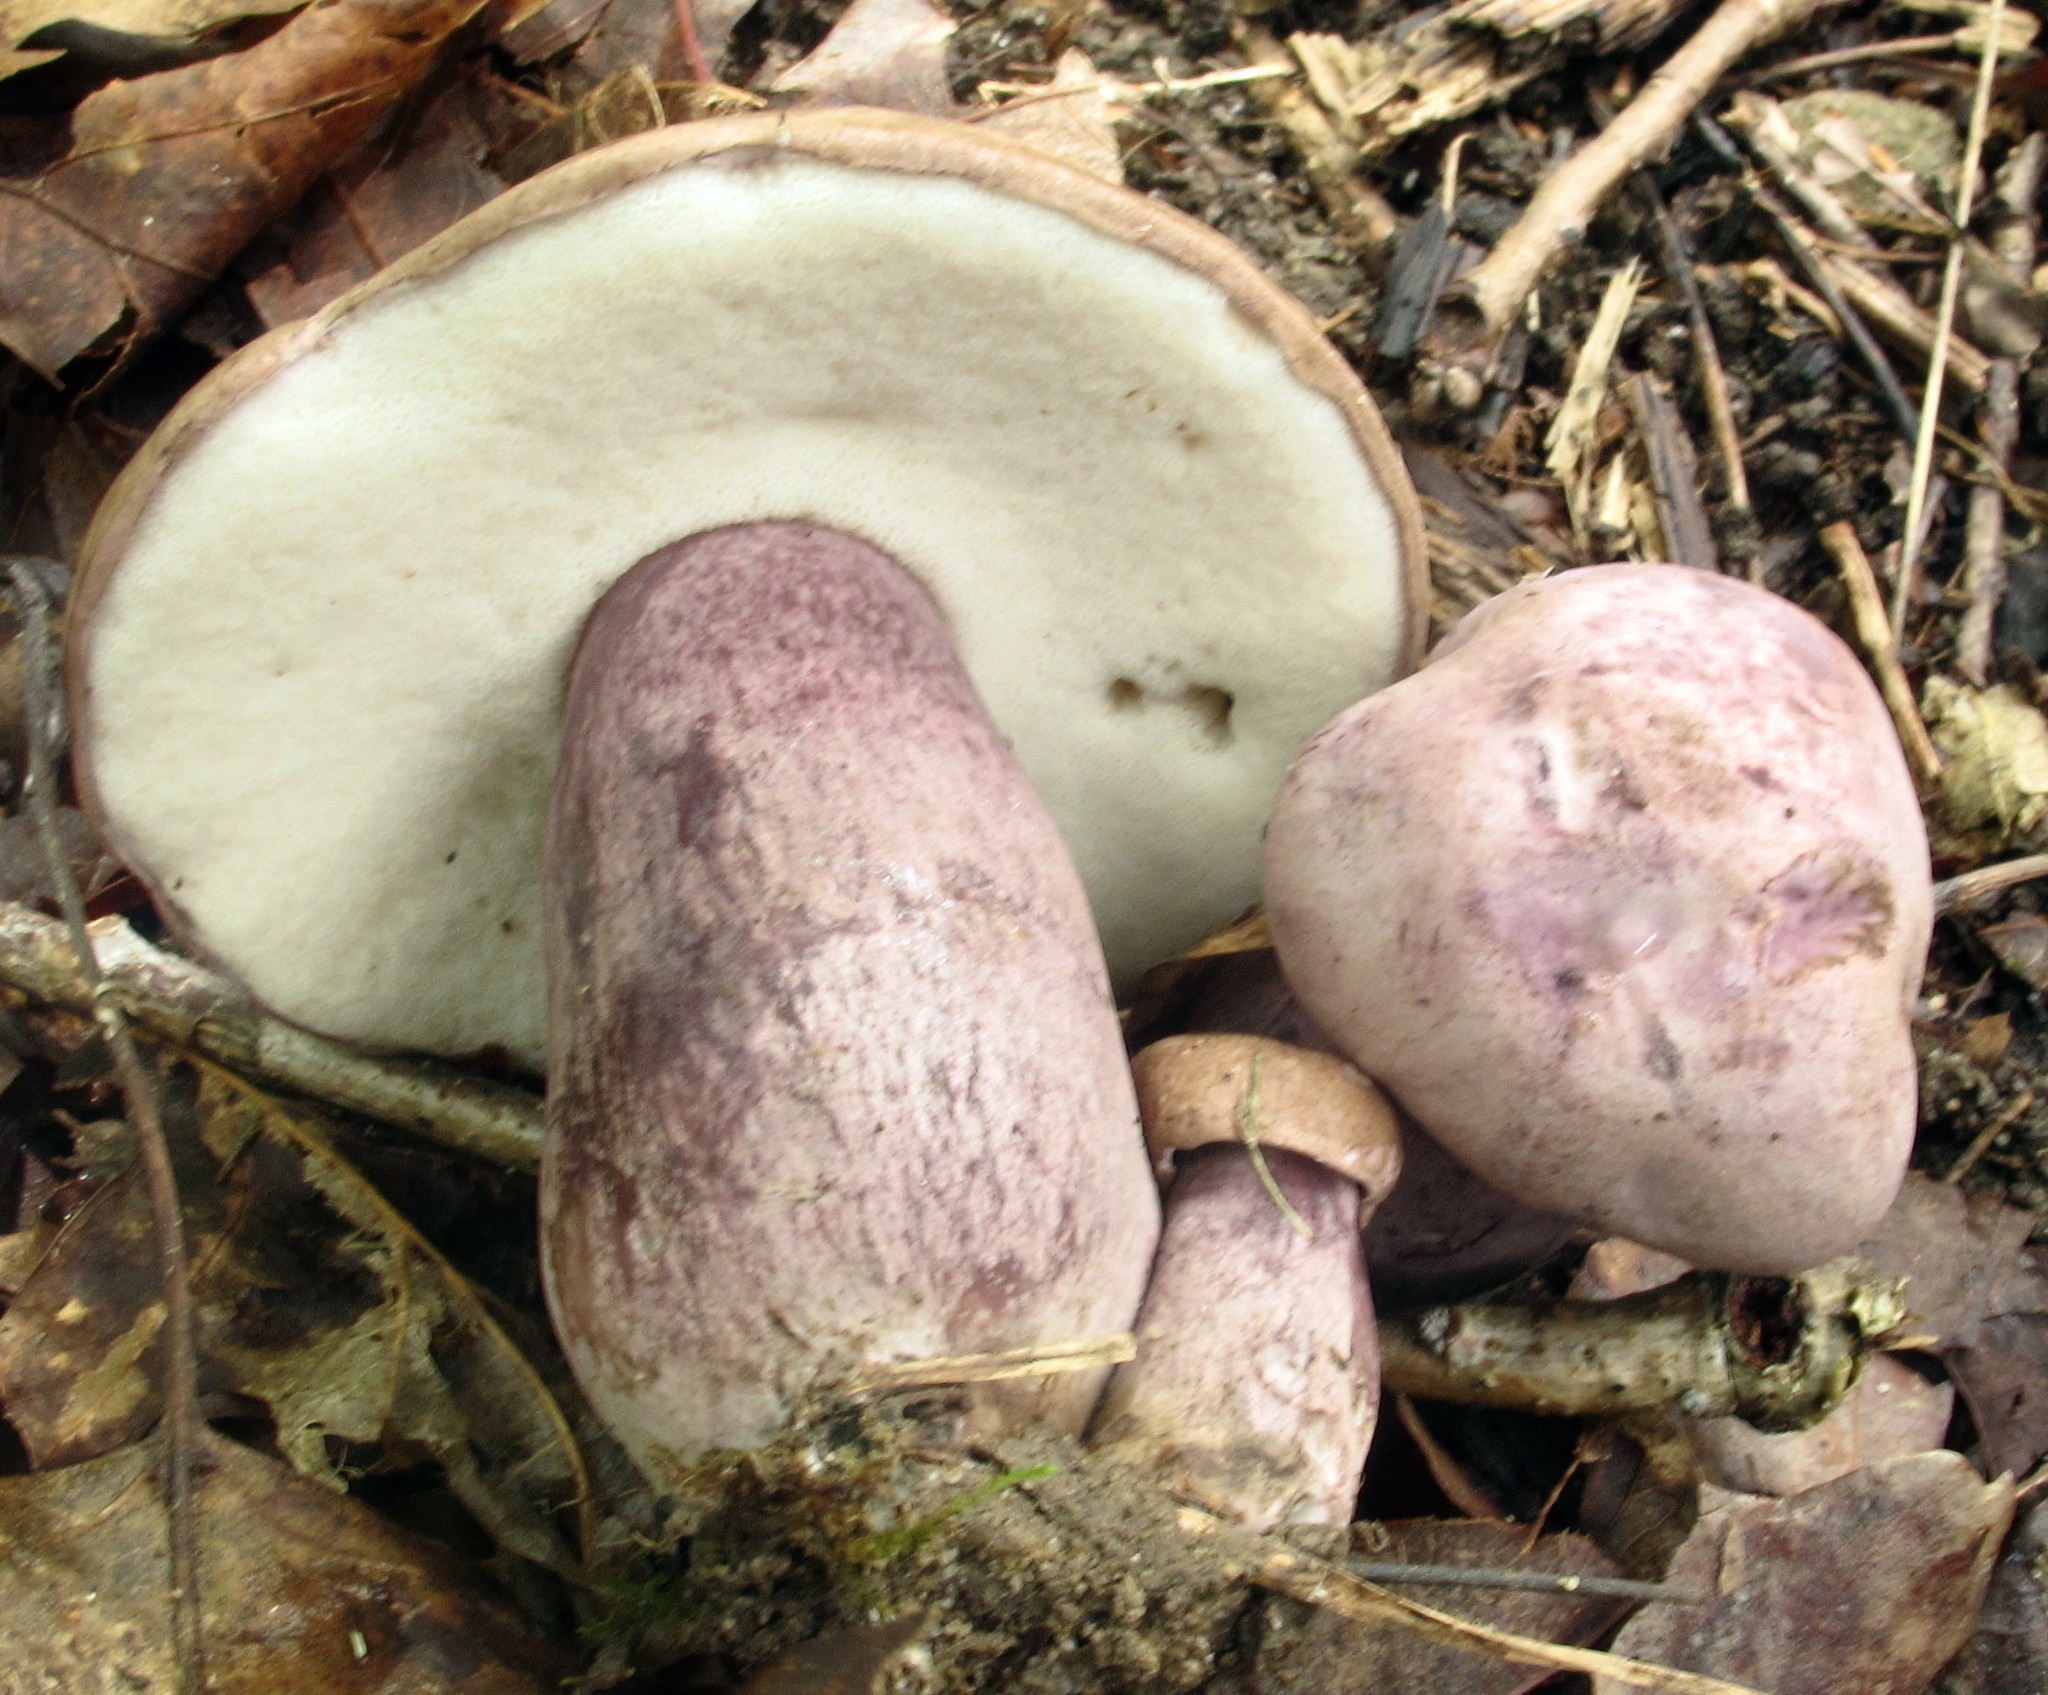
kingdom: Fungi
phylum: Basidiomycota
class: Agaricomycetes
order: Boletales
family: Boletaceae
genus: Tylopilus
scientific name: Tylopilus plumbeoviolaceus
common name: Violet gray bolete
